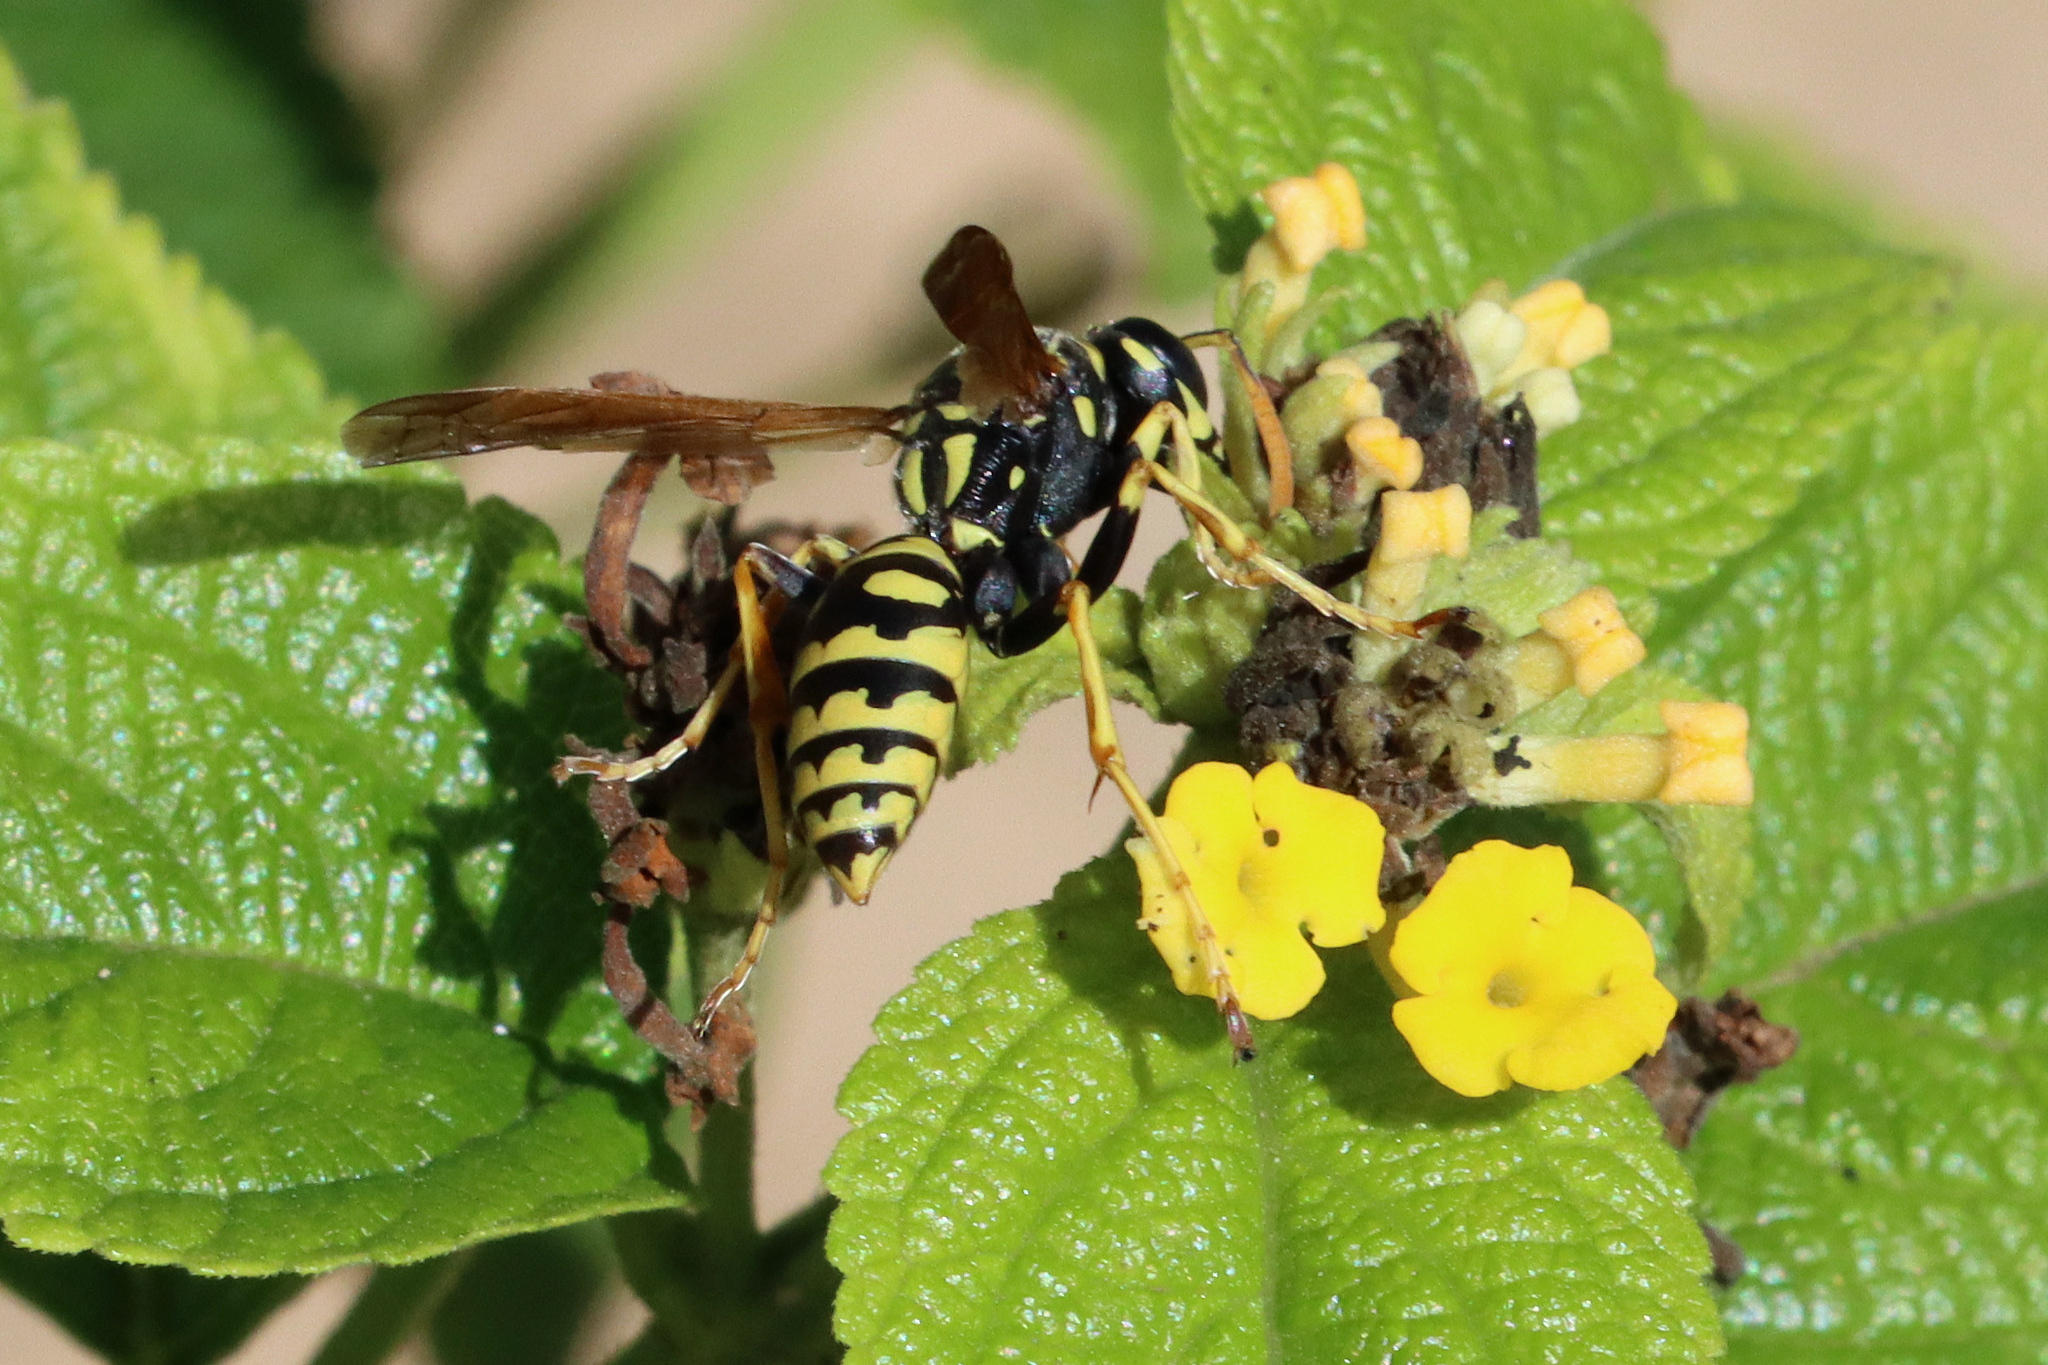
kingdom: Animalia
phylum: Arthropoda
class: Insecta
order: Hymenoptera
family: Eumenidae
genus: Polistes
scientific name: Polistes dominula
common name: Paper wasp
